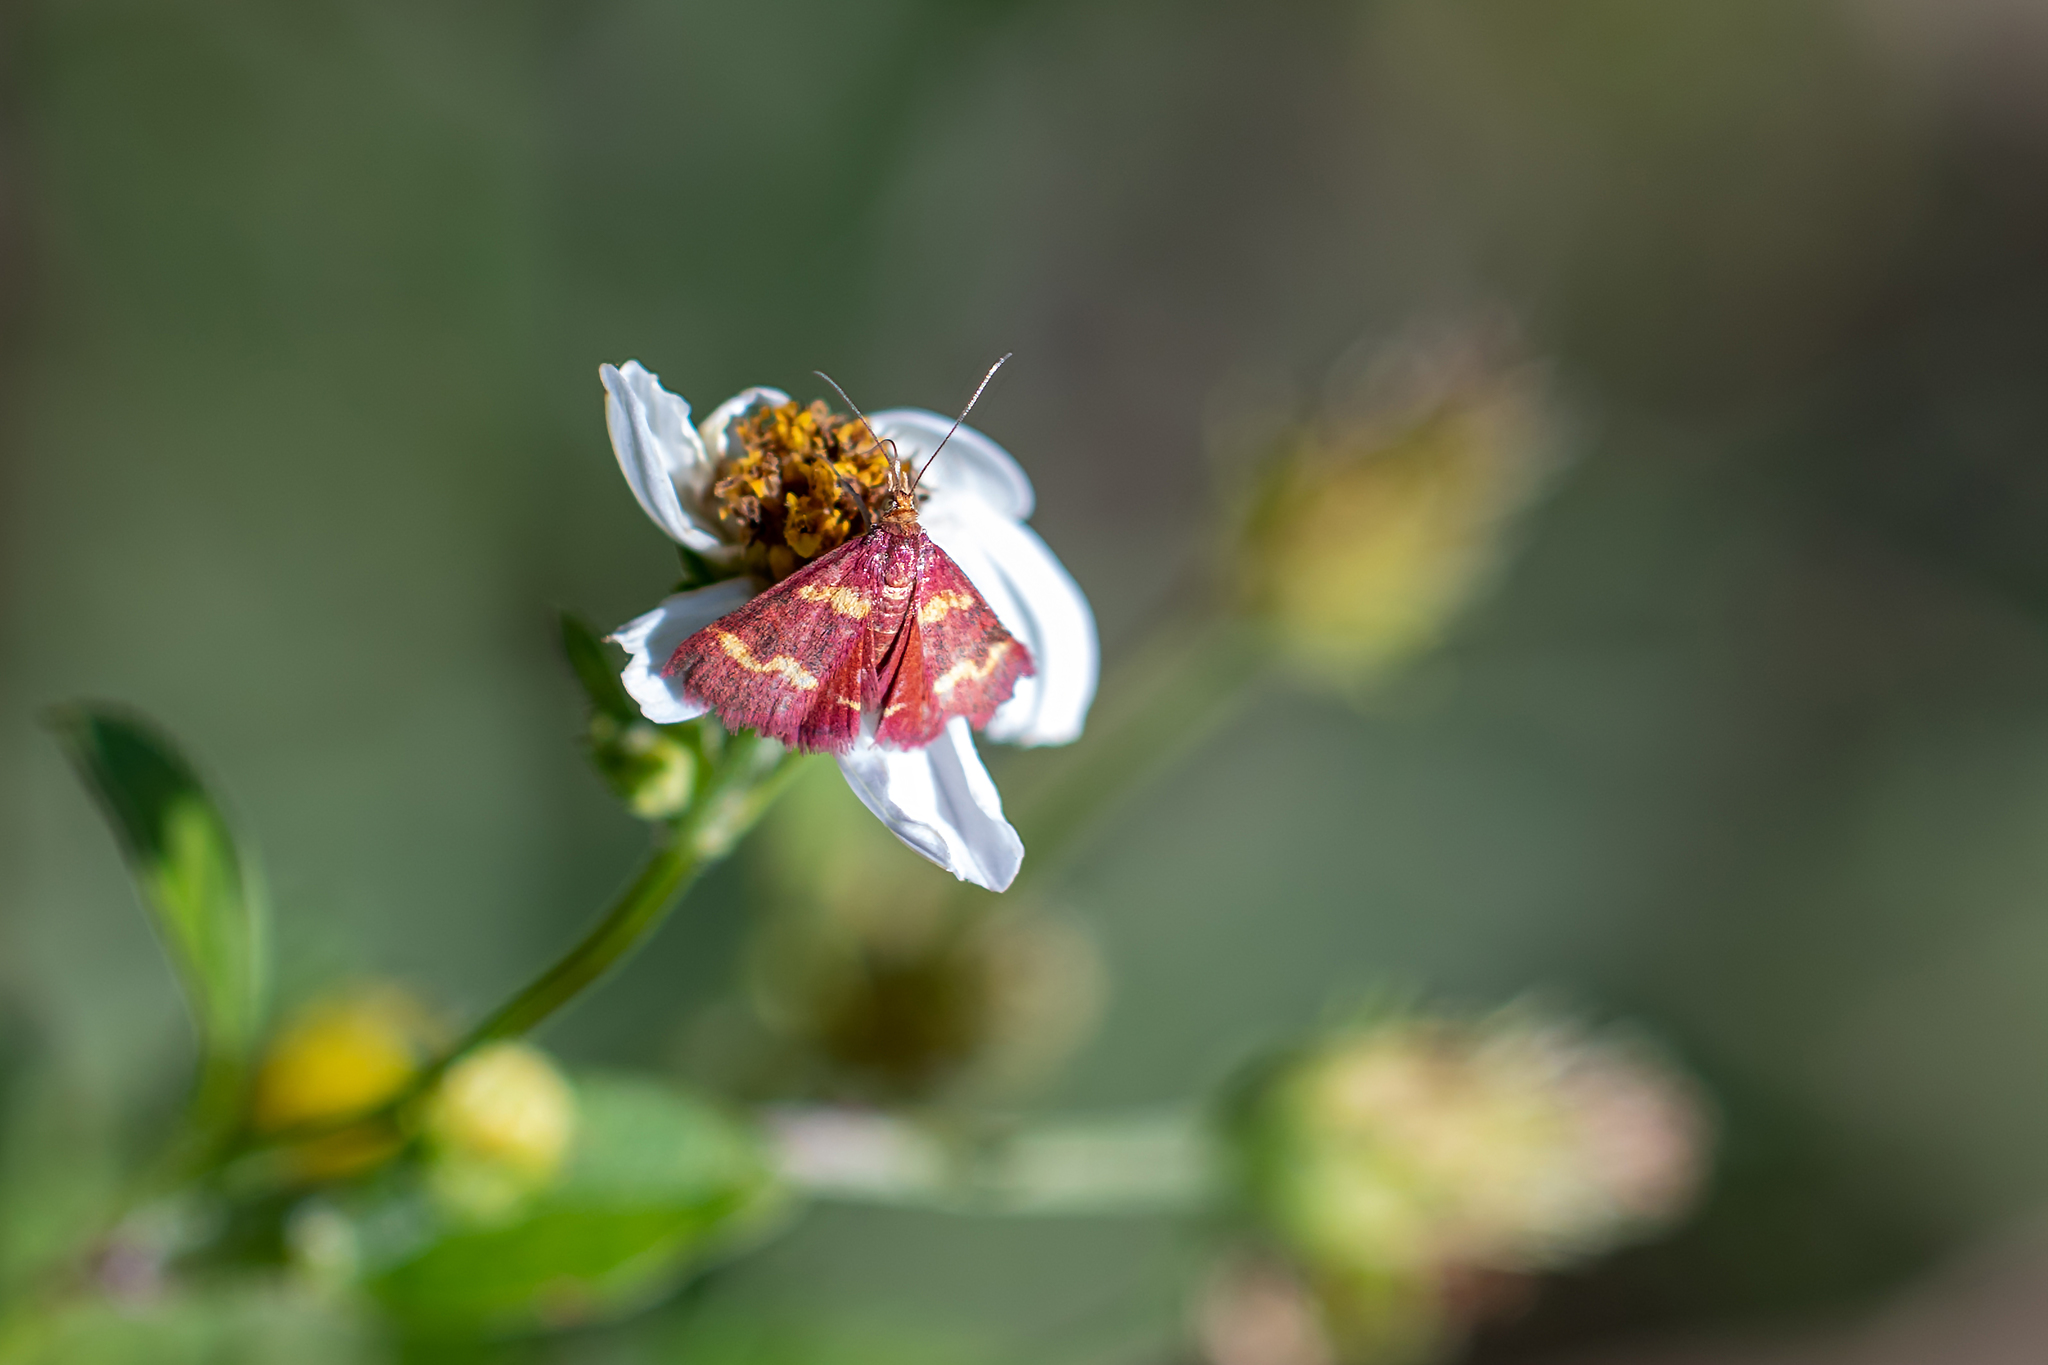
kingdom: Animalia
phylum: Arthropoda
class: Insecta
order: Lepidoptera
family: Crambidae
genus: Pyrausta
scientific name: Pyrausta tyralis
